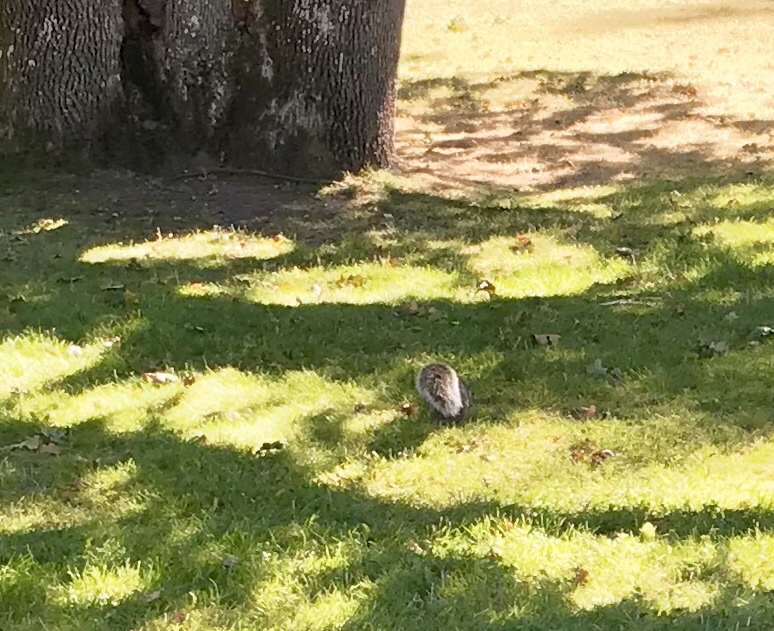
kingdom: Animalia
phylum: Chordata
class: Mammalia
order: Rodentia
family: Sciuridae
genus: Sciurus
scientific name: Sciurus carolinensis
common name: Eastern gray squirrel
